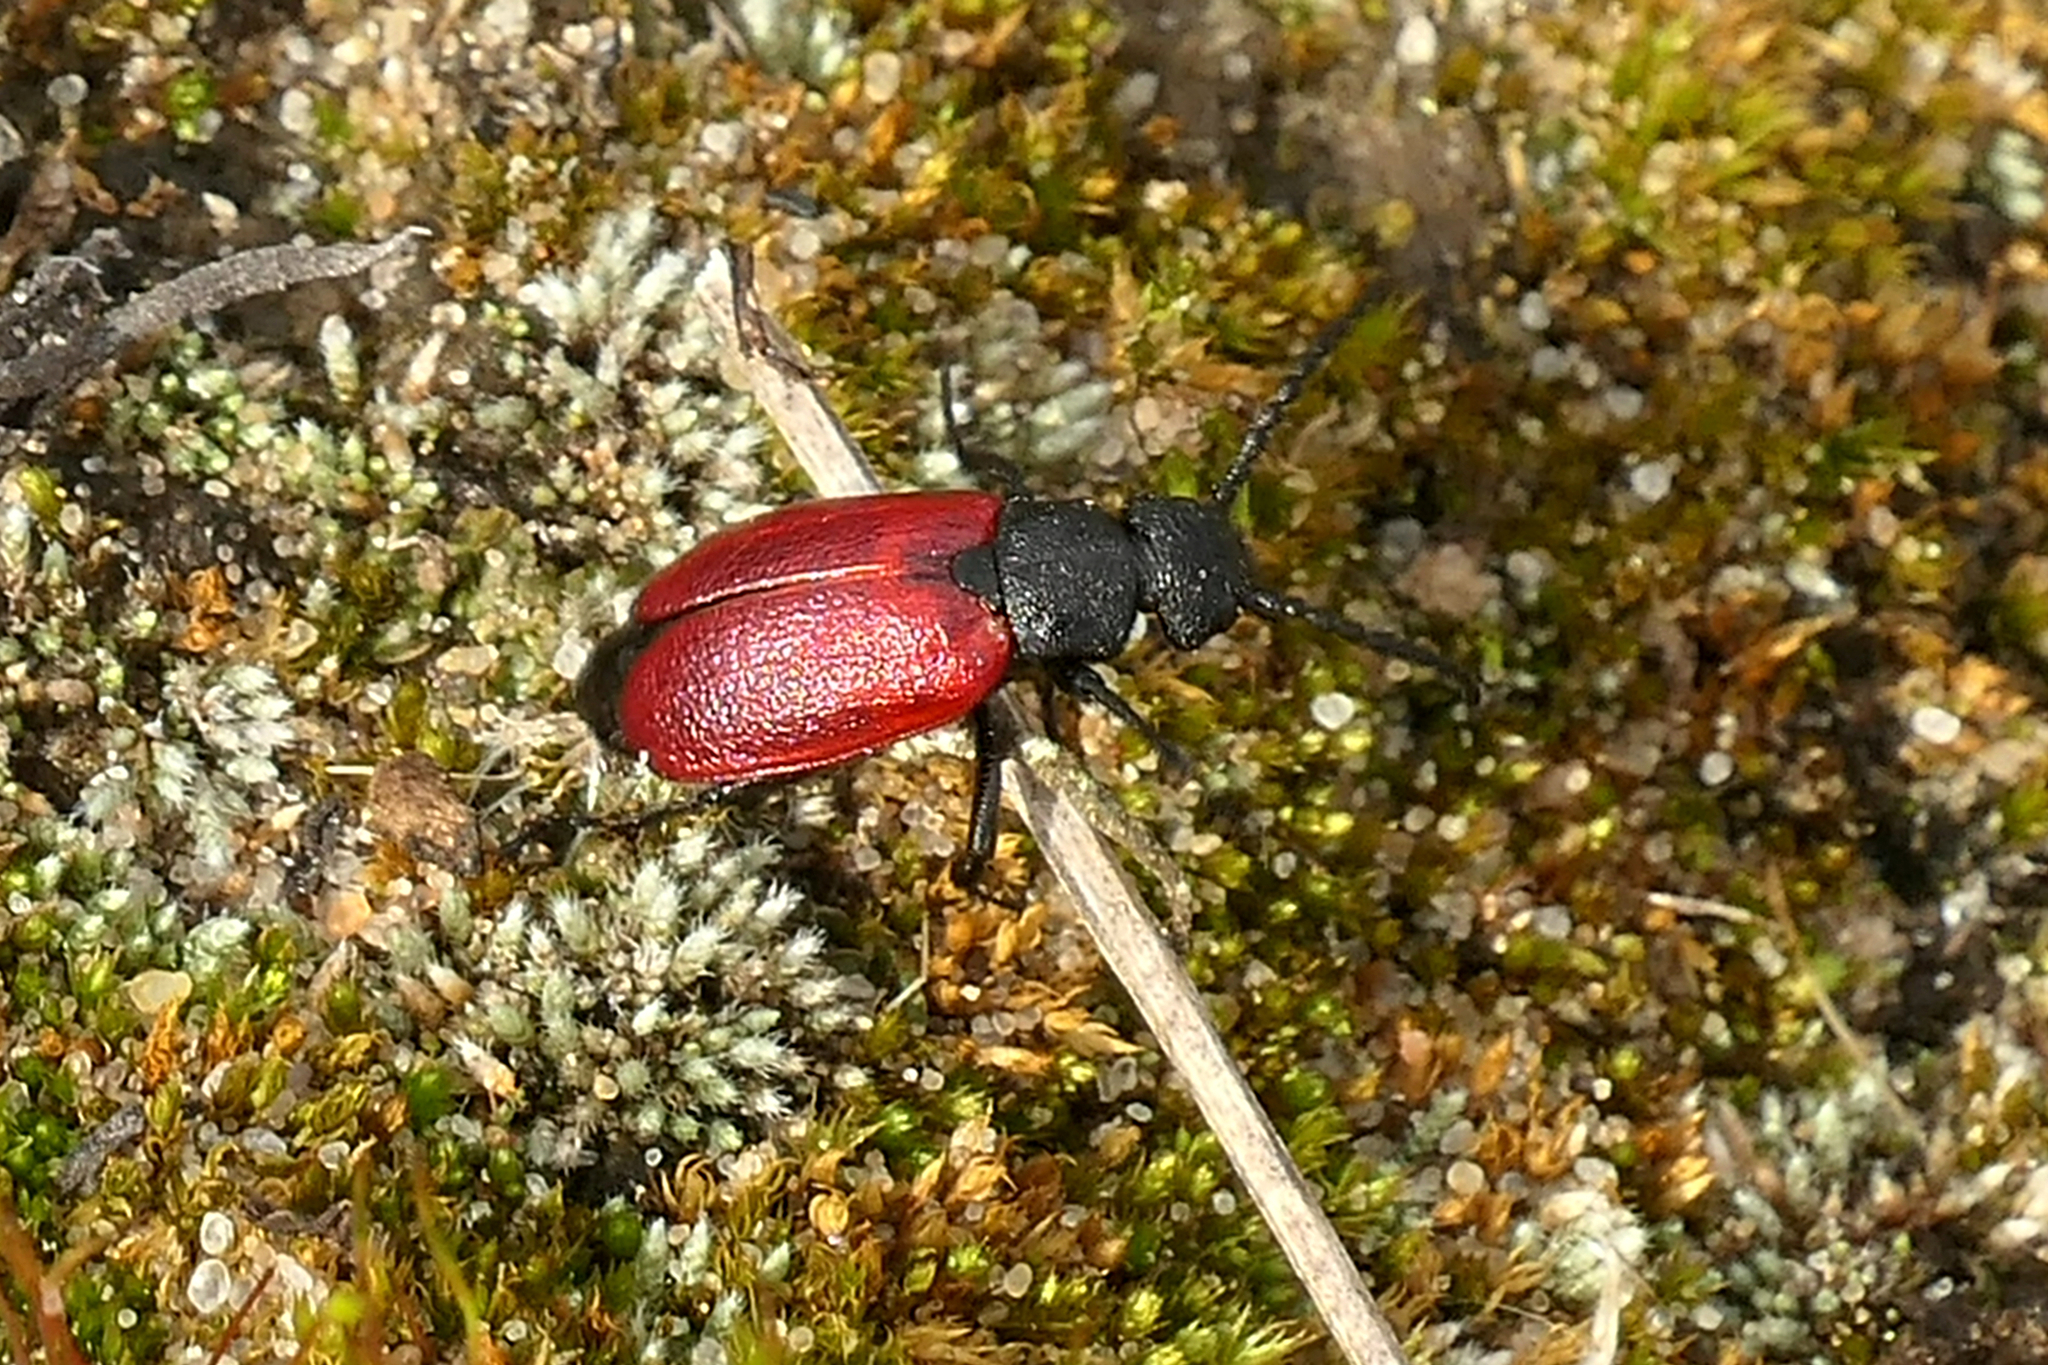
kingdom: Animalia
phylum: Arthropoda
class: Insecta
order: Coleoptera
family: Meloidae
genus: Tricrania
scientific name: Tricrania sanguinipennis
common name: Blood-winged blister beetle
